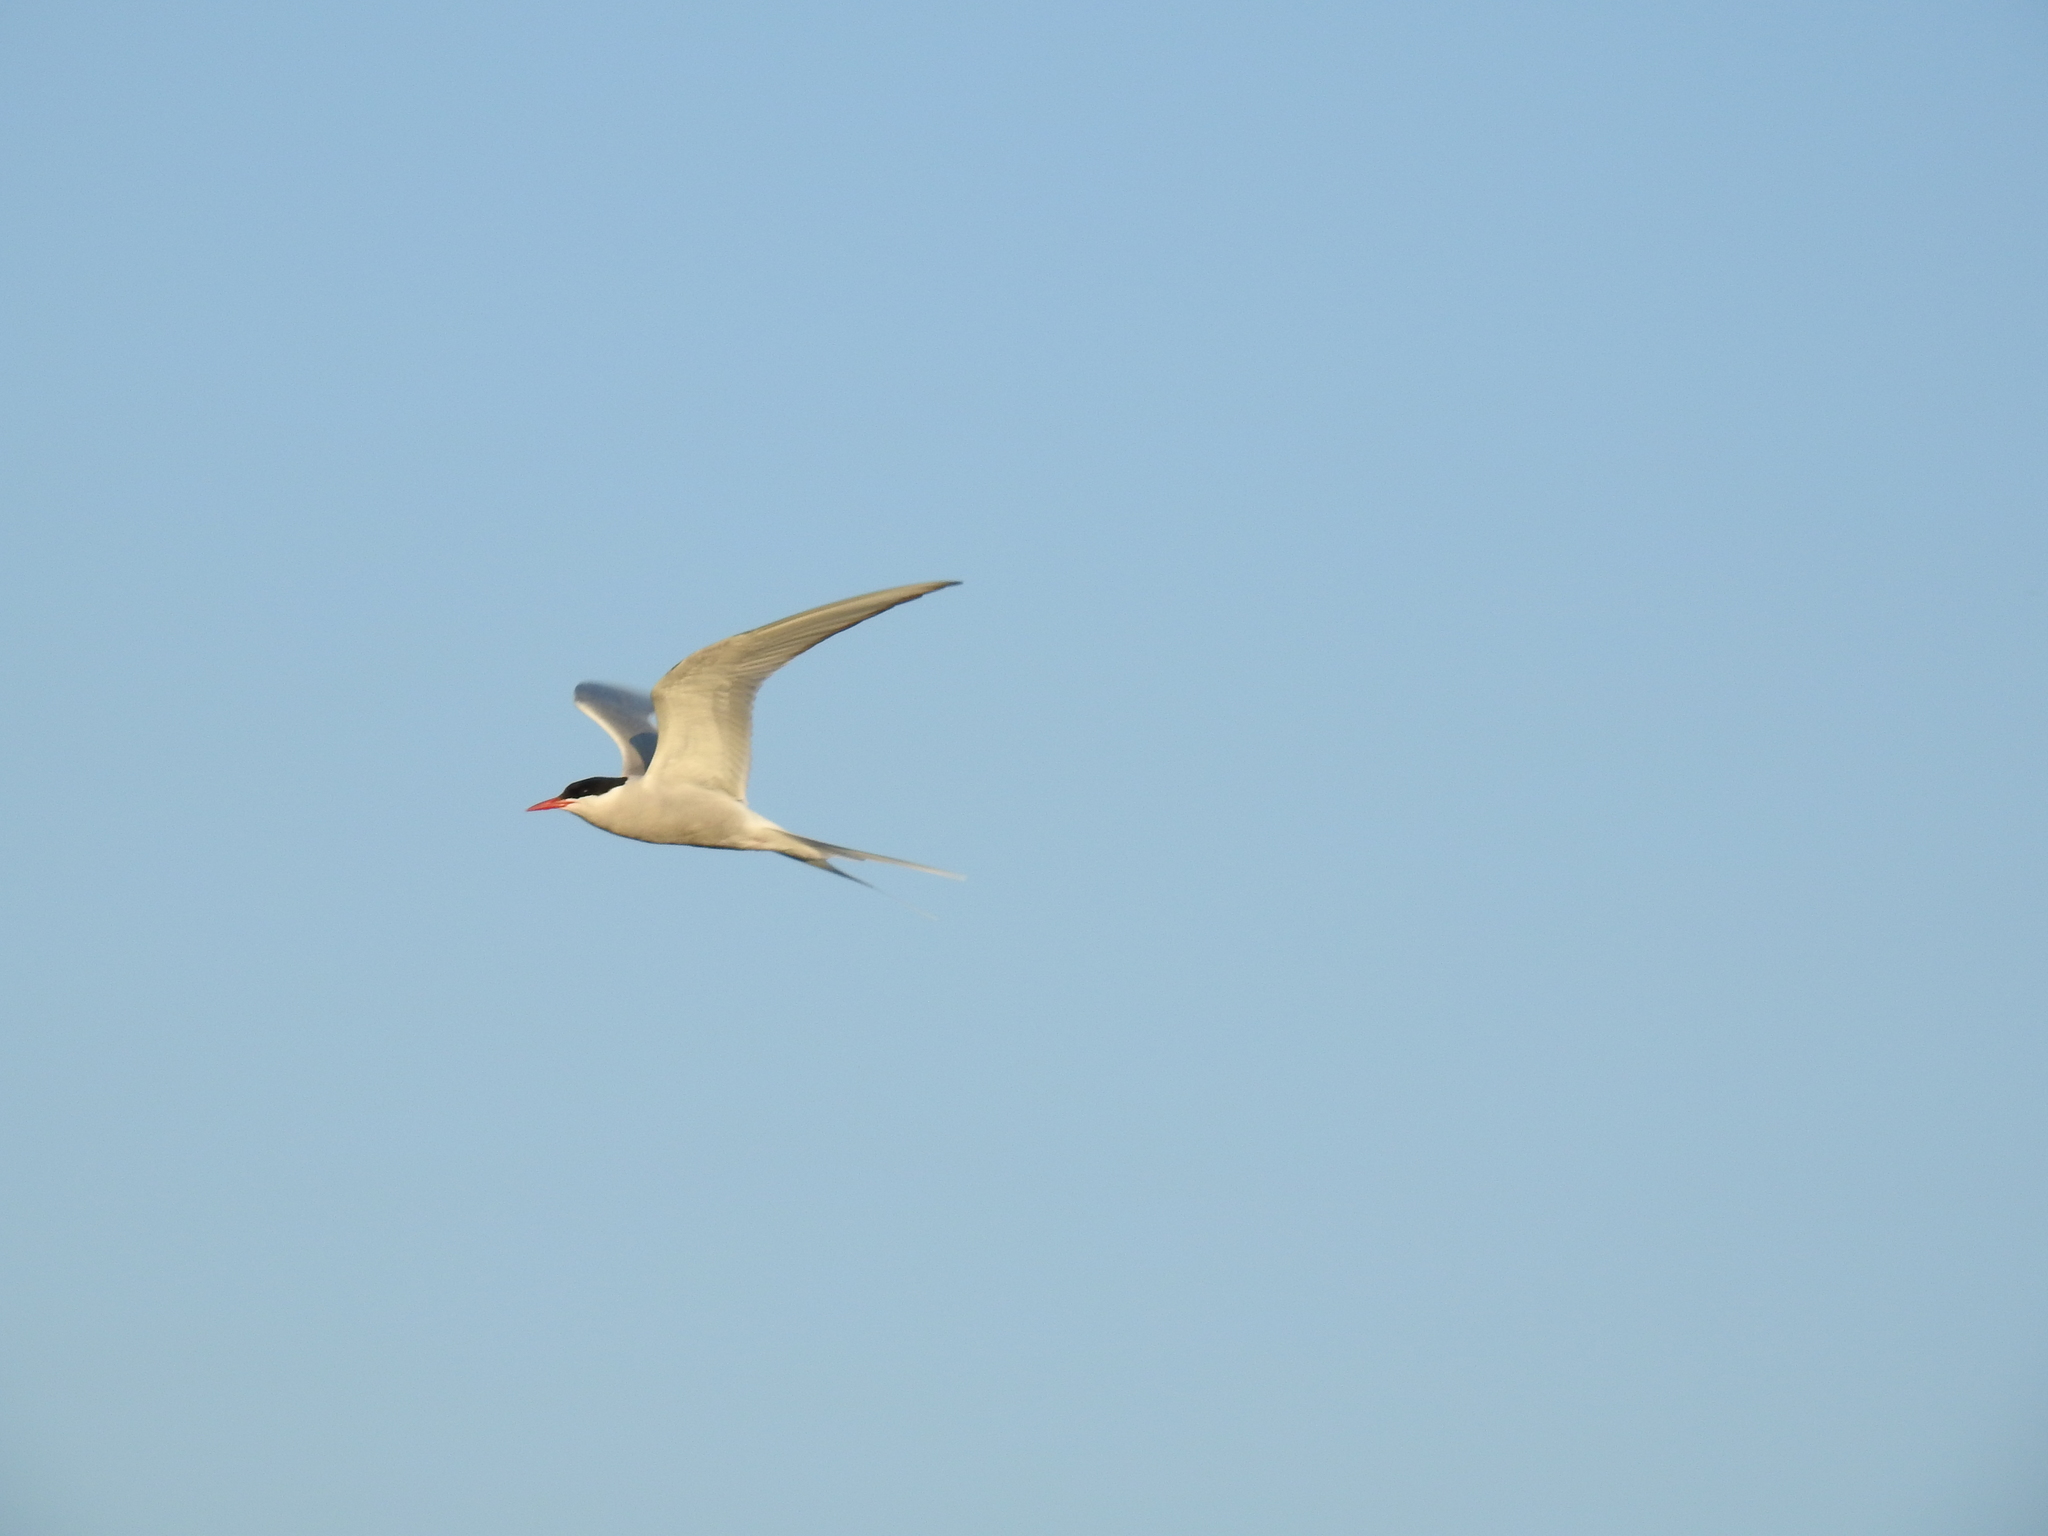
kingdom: Animalia
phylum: Chordata
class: Aves
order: Charadriiformes
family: Laridae
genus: Sterna
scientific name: Sterna paradisaea
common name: Arctic tern
